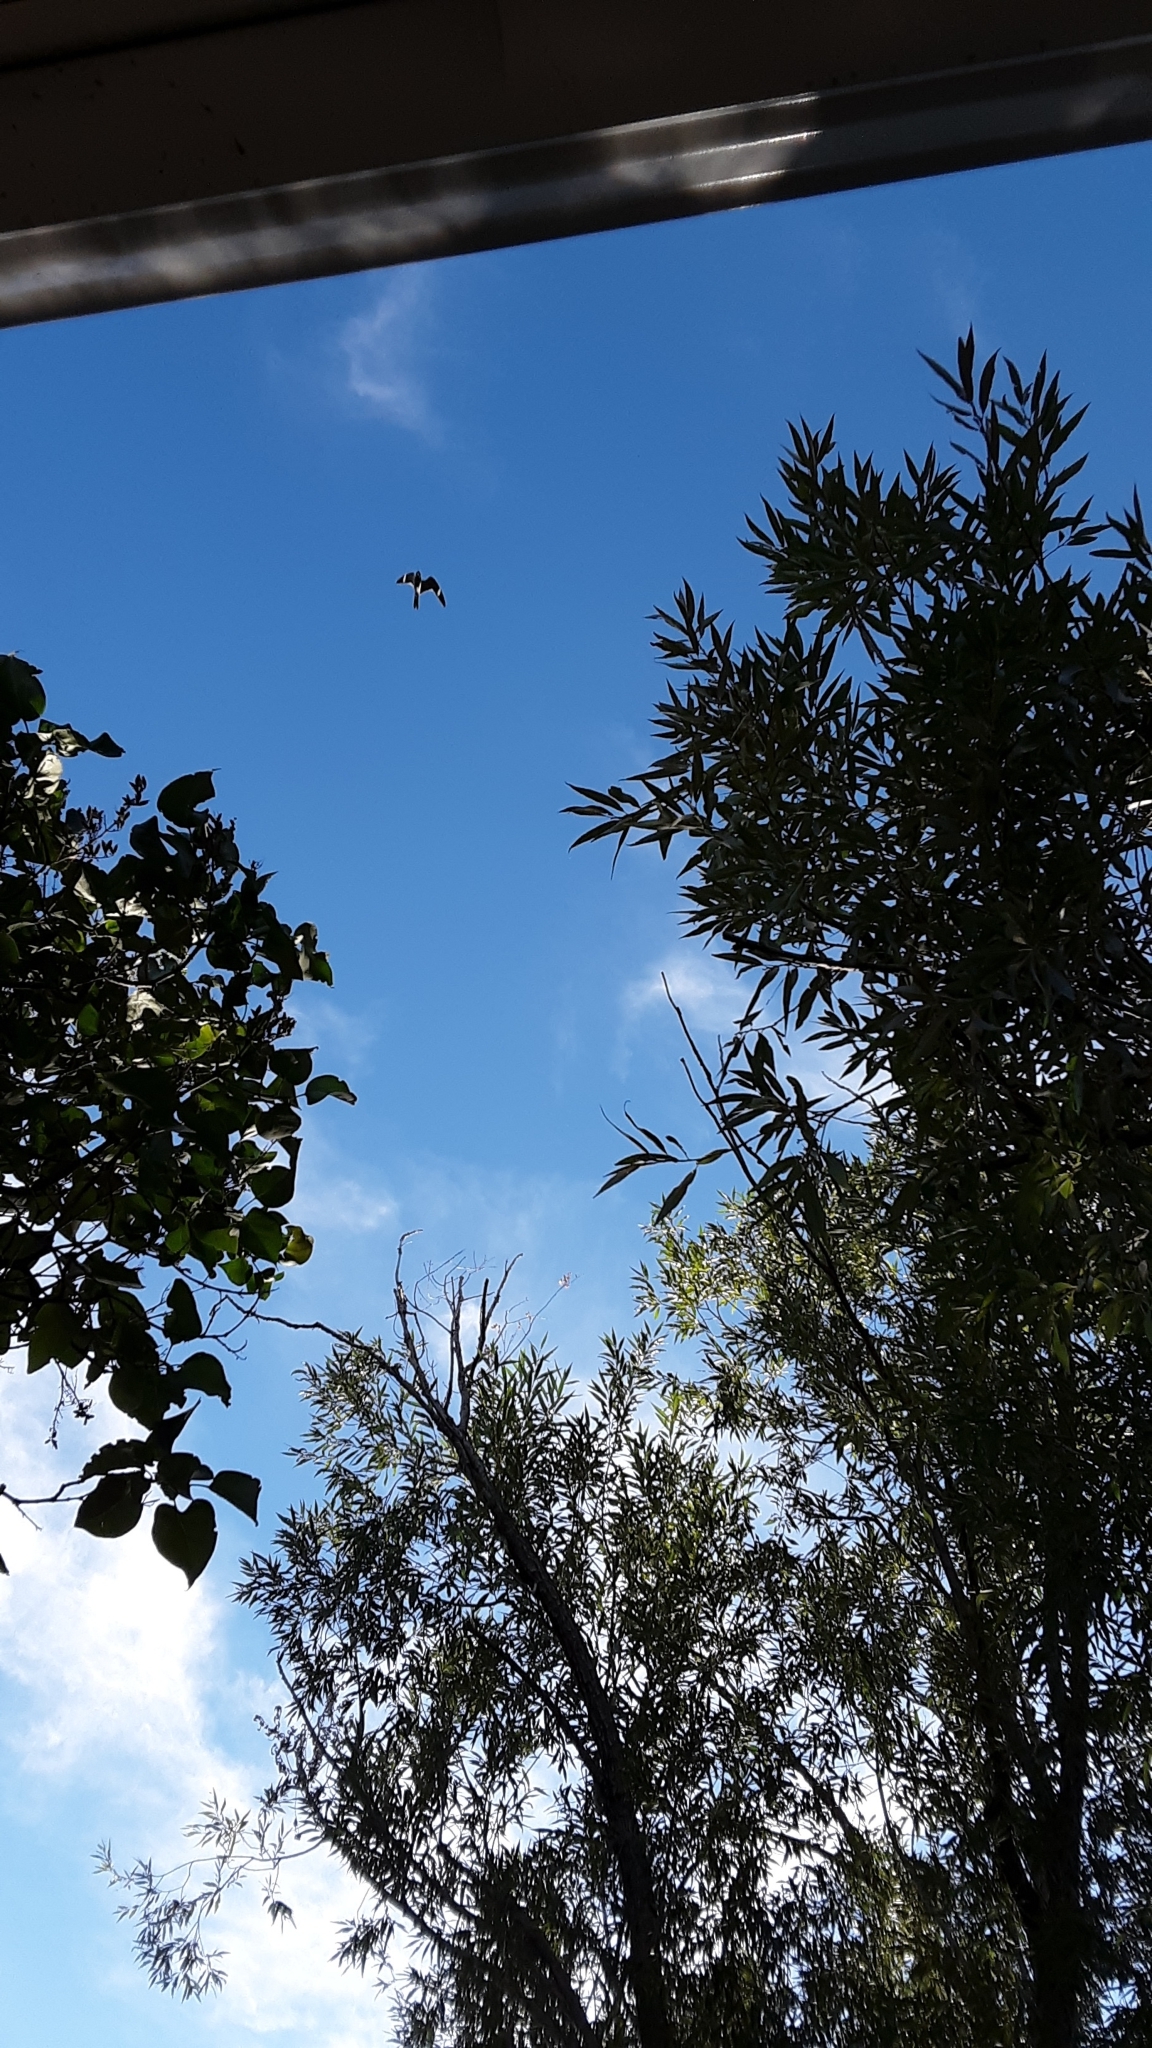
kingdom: Animalia
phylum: Chordata
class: Aves
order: Caprimulgiformes
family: Caprimulgidae
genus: Chordeiles
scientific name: Chordeiles minor
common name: Common nighthawk
